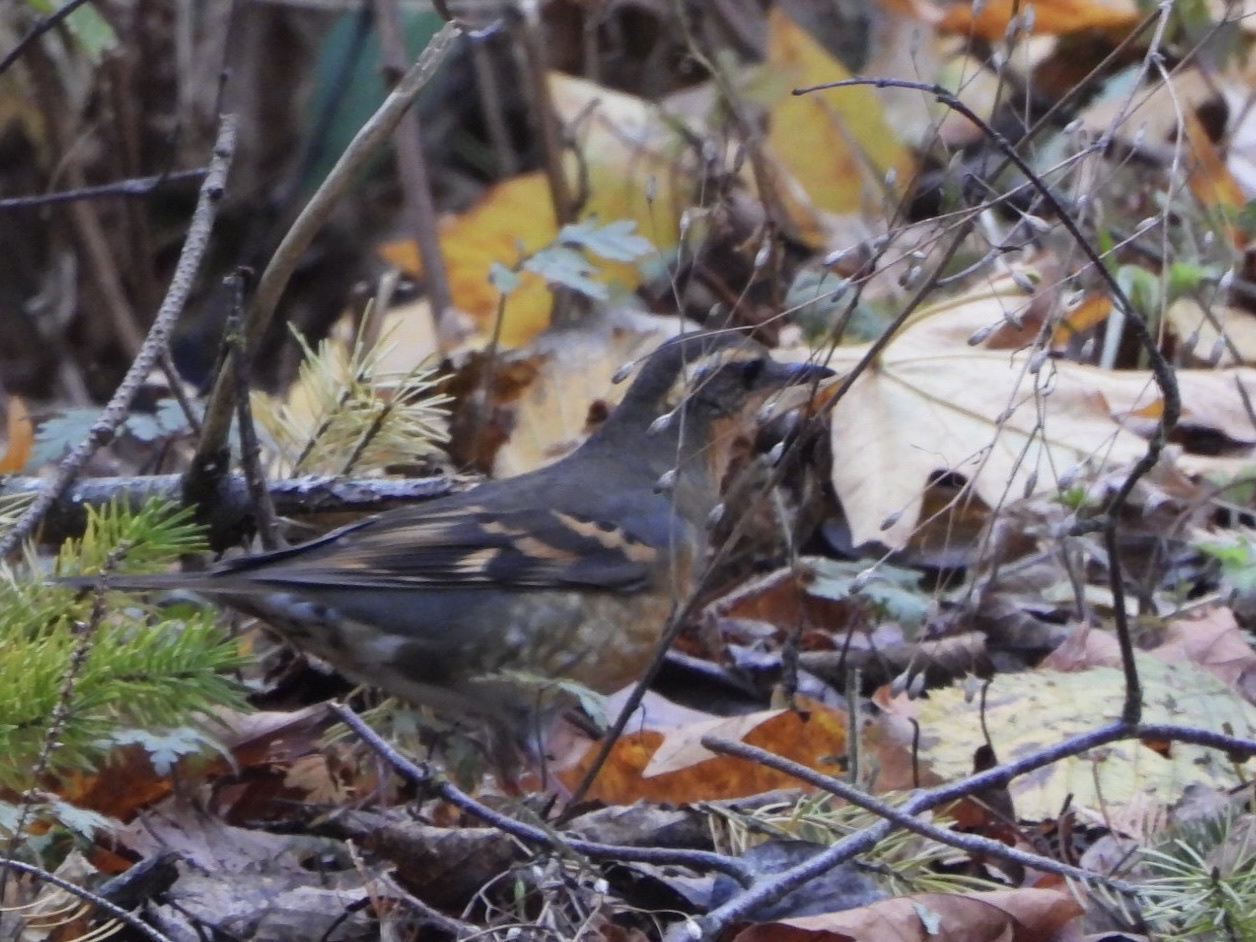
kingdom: Animalia
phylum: Chordata
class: Aves
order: Passeriformes
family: Turdidae
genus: Ixoreus
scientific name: Ixoreus naevius
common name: Varied thrush
